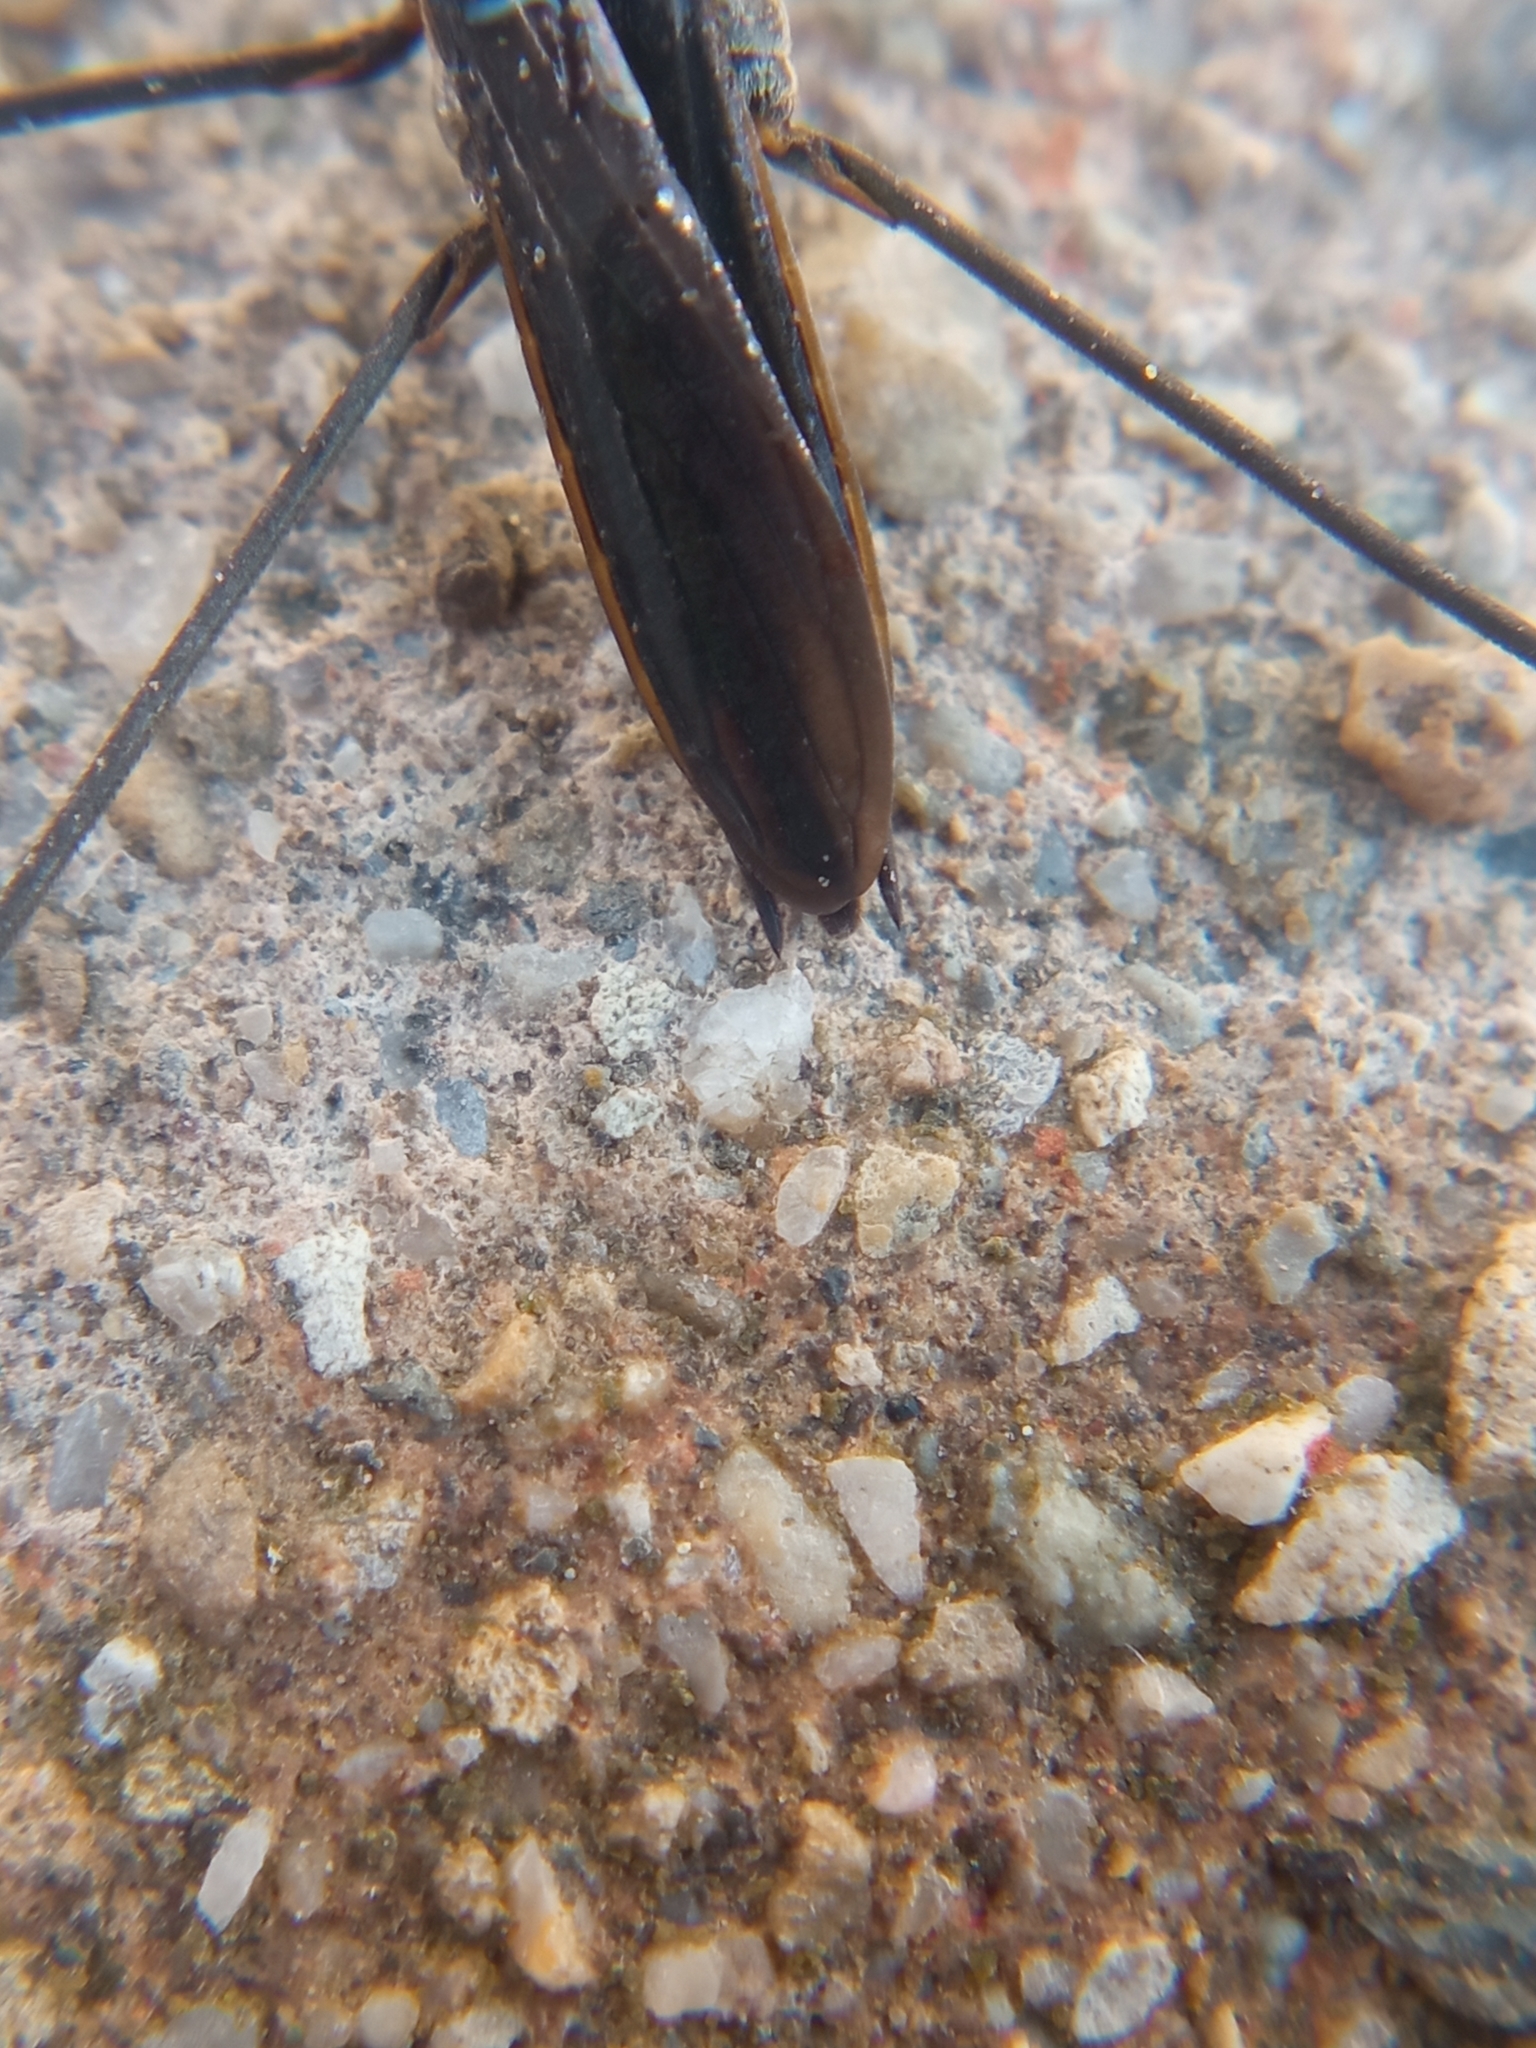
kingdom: Animalia
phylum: Arthropoda
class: Insecta
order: Hemiptera
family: Gerridae
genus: Aquarius
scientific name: Aquarius paludum
